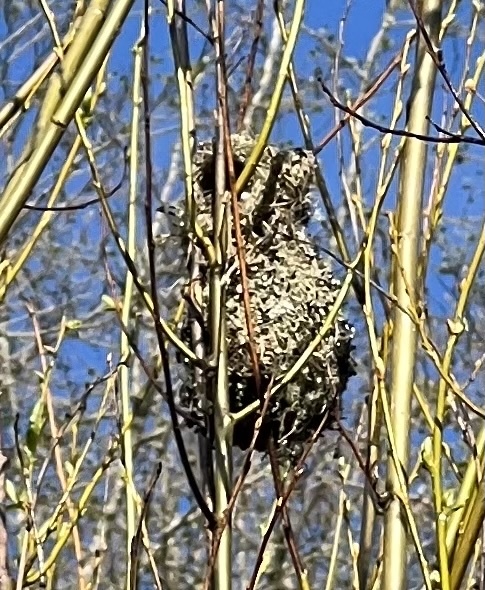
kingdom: Animalia
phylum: Chordata
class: Aves
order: Passeriformes
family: Aegithalidae
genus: Psaltriparus
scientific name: Psaltriparus minimus
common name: American bushtit
